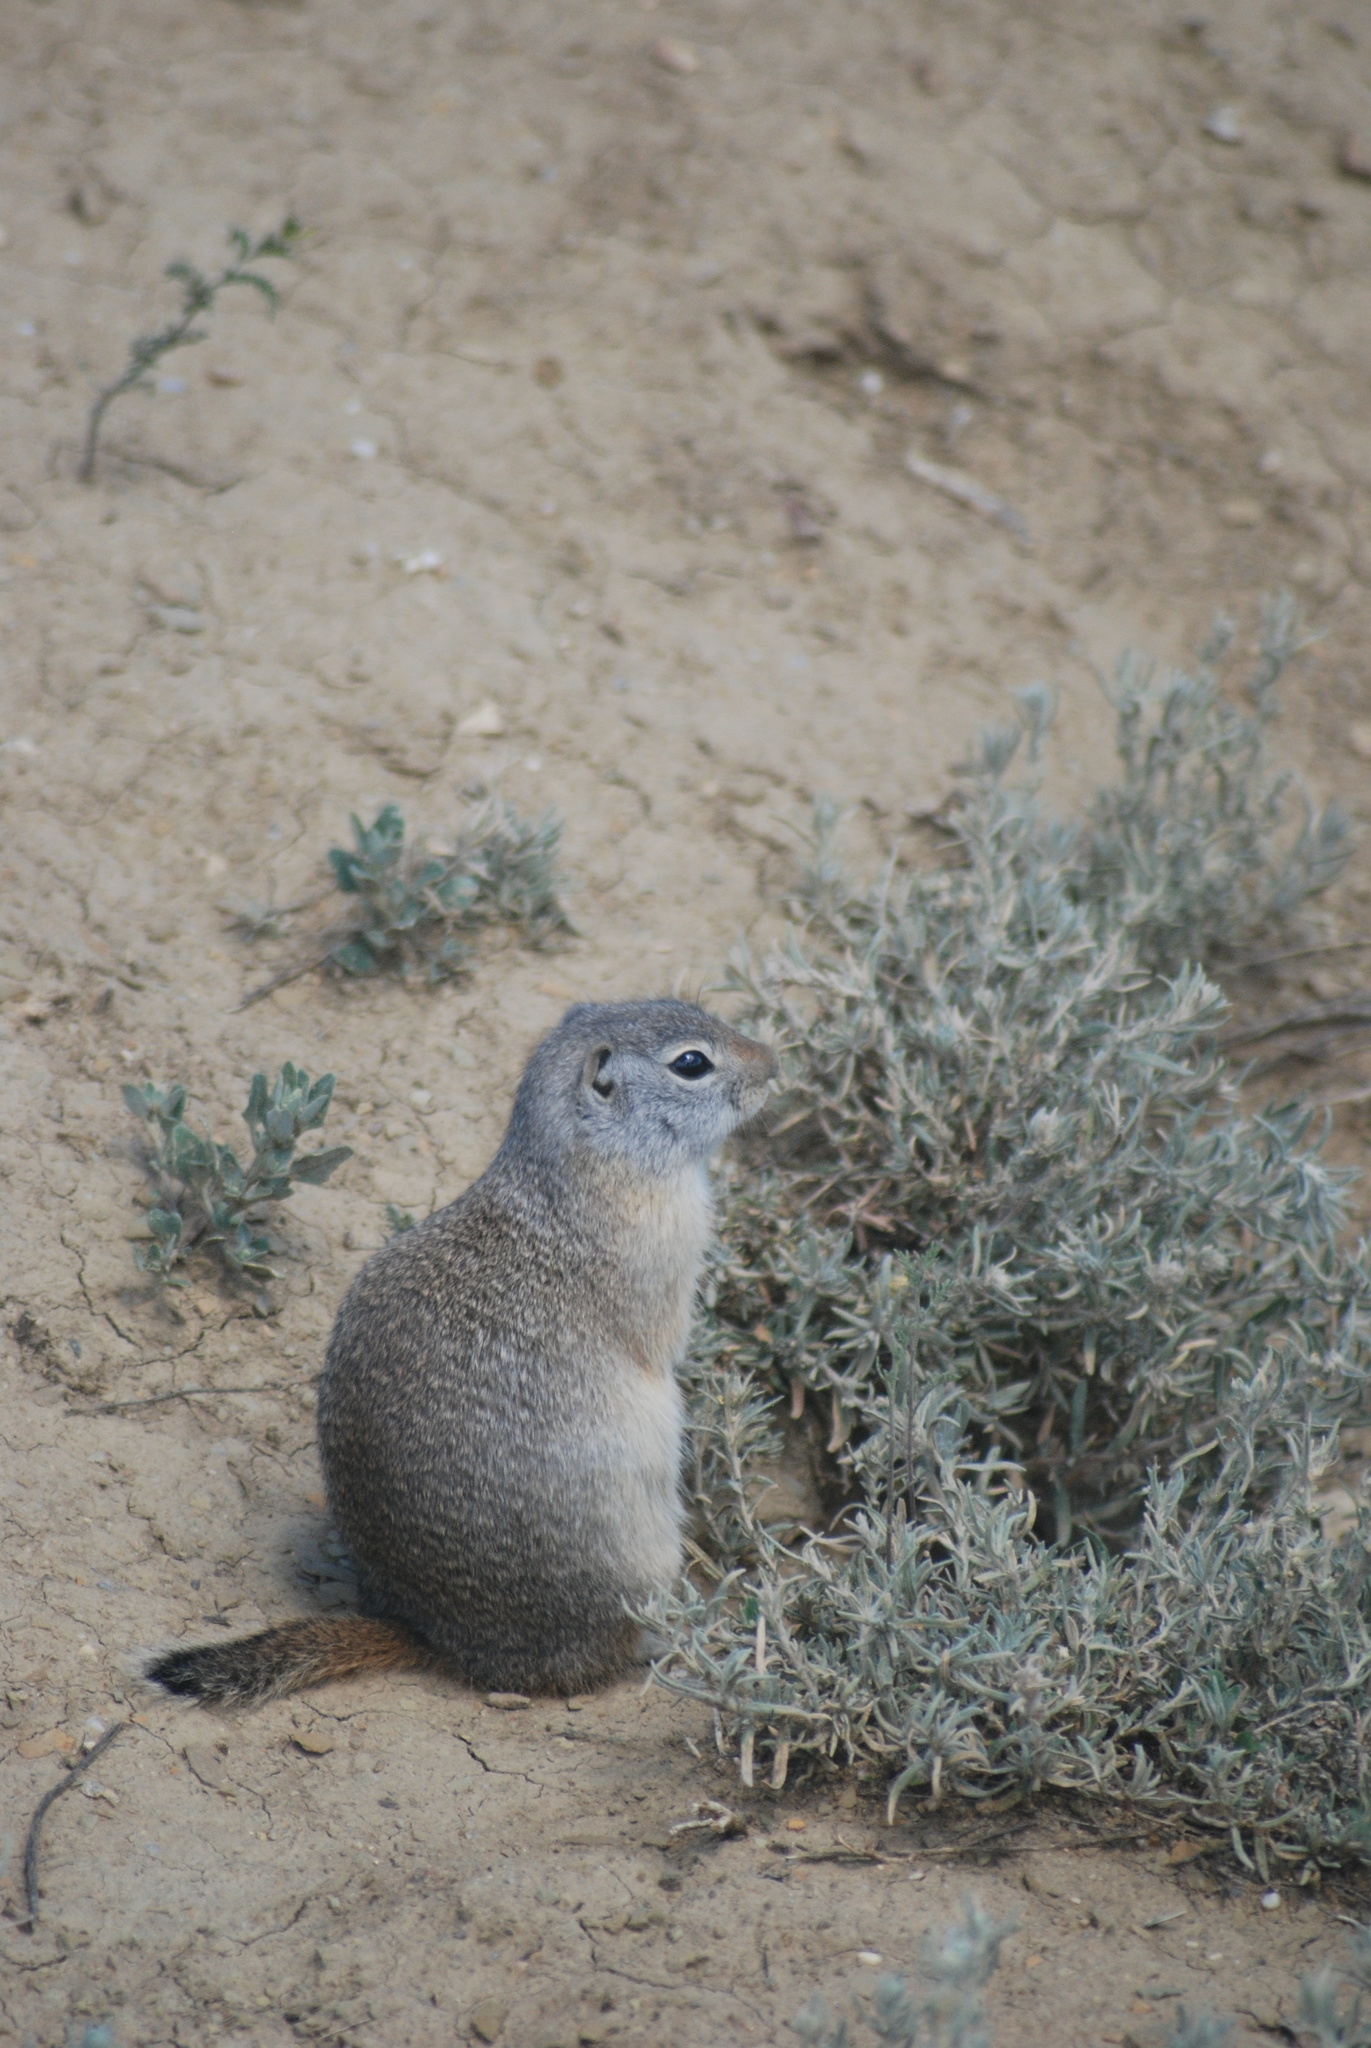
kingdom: Animalia
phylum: Chordata
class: Mammalia
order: Rodentia
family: Sciuridae
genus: Urocitellus
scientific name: Urocitellus elegans
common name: Wyoming ground squirrel
